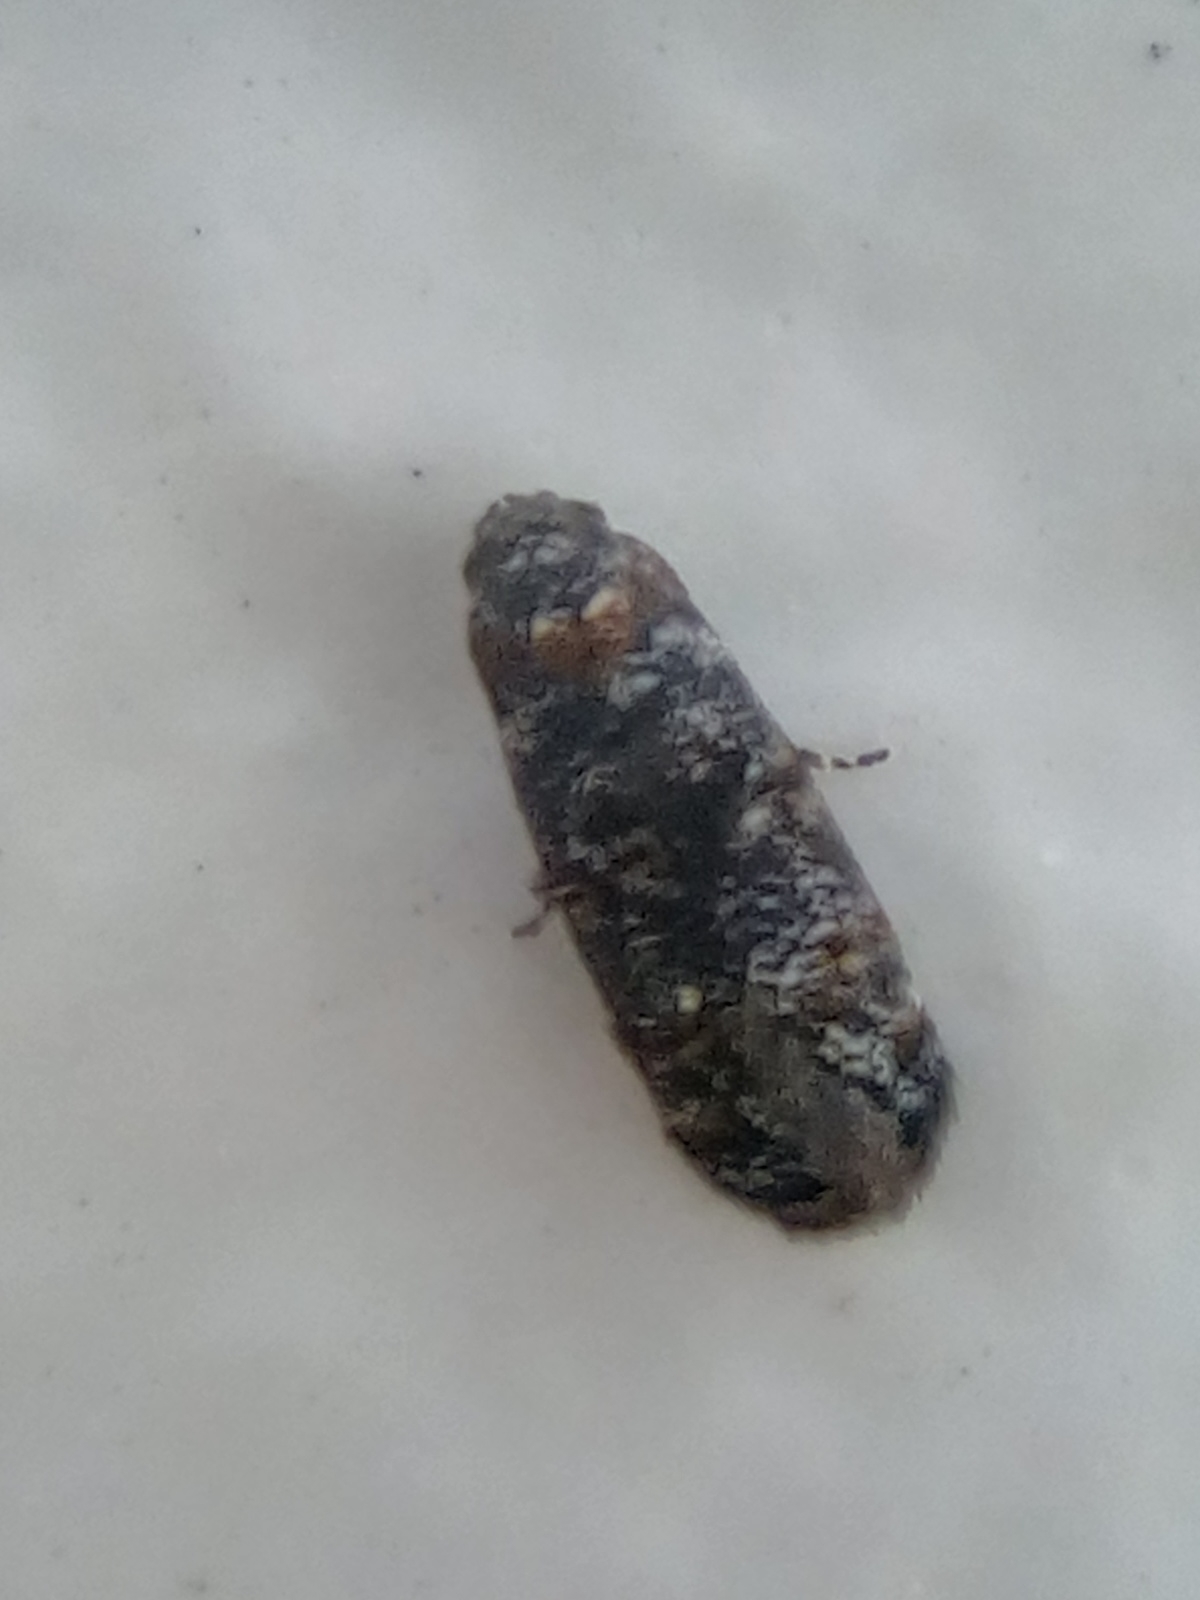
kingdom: Animalia
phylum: Arthropoda
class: Insecta
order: Lepidoptera
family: Oecophoridae
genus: Corocosma
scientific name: Corocosma memorabilis
